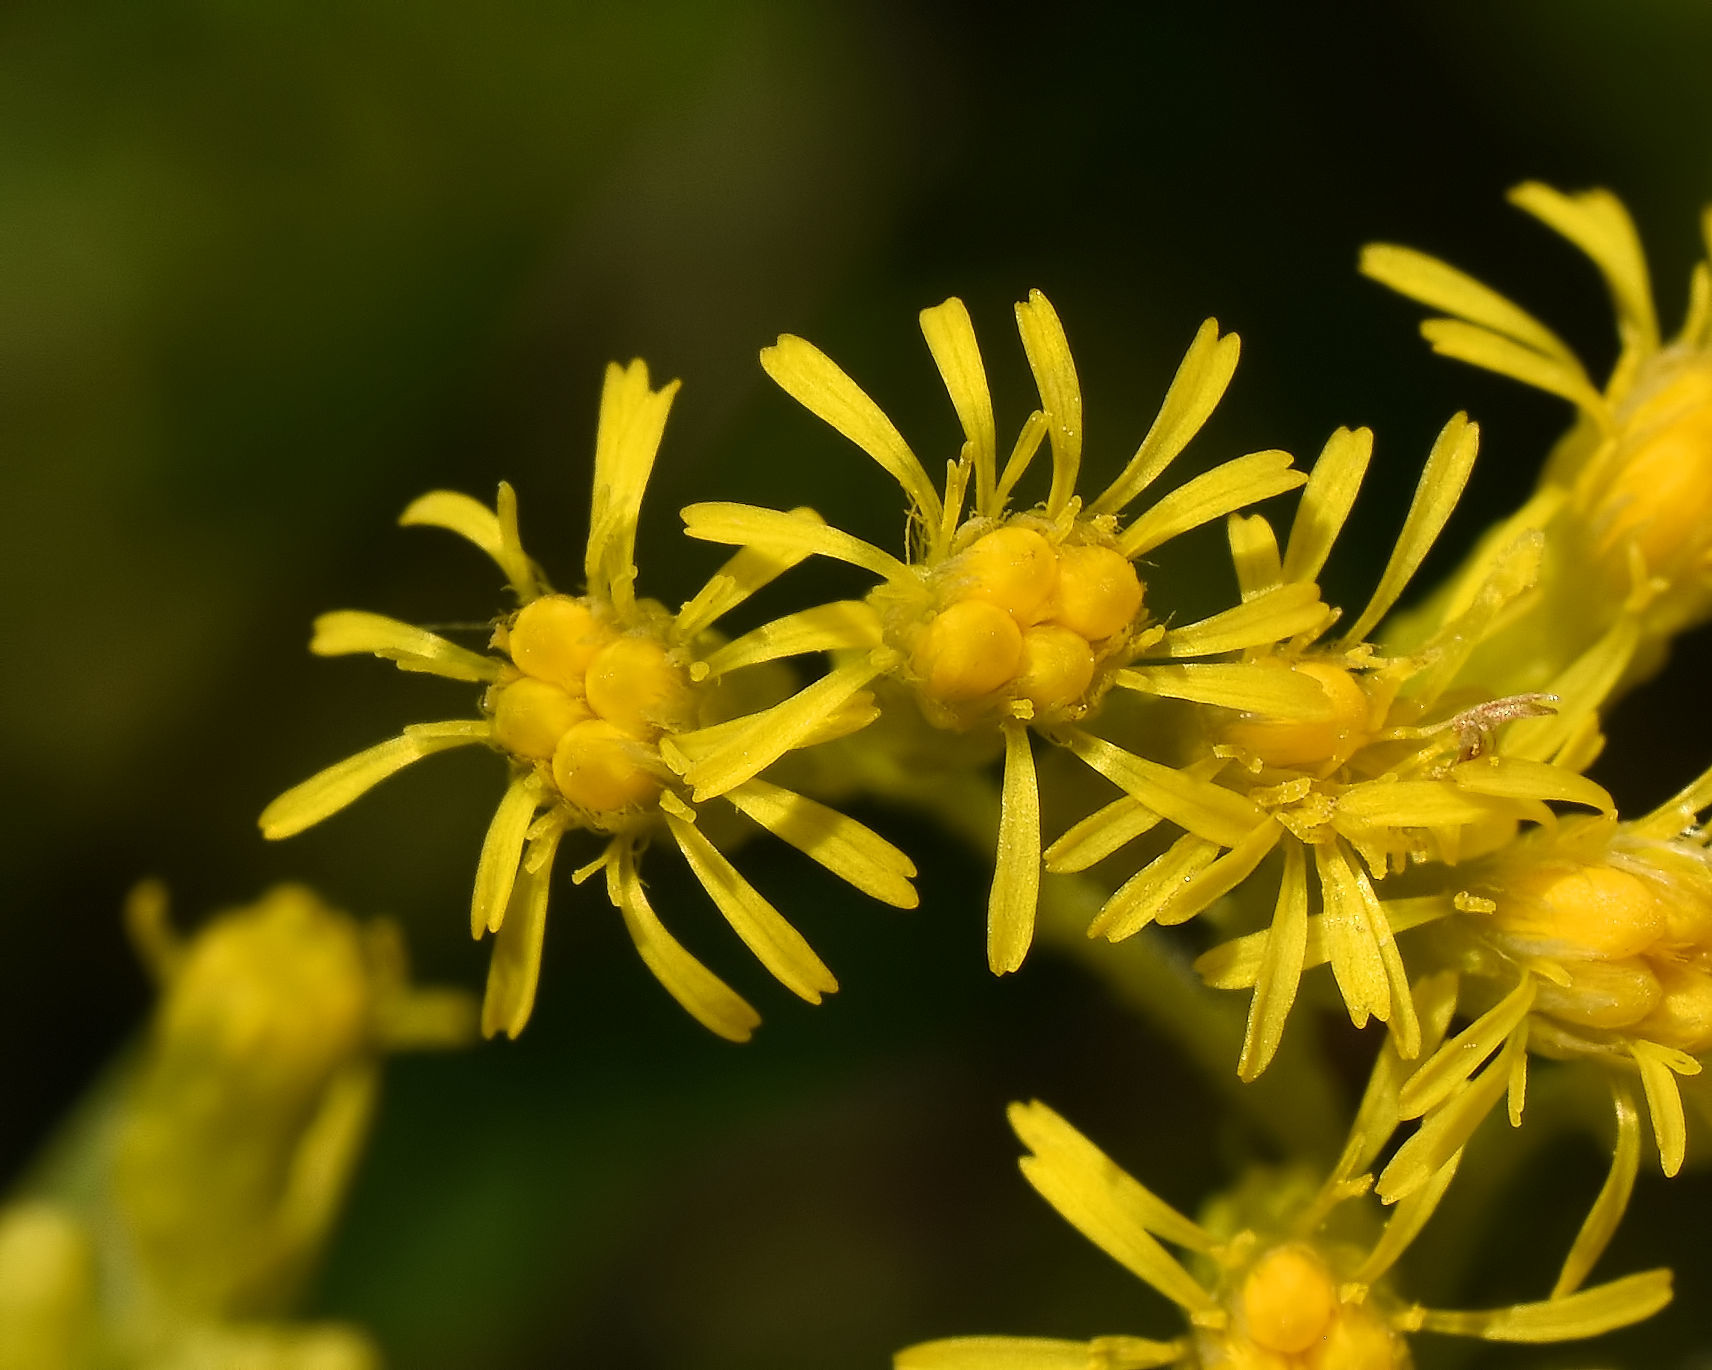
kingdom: Plantae
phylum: Tracheophyta
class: Magnoliopsida
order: Asterales
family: Asteraceae
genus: Solidago
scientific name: Solidago canadensis
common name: Canada goldenrod
